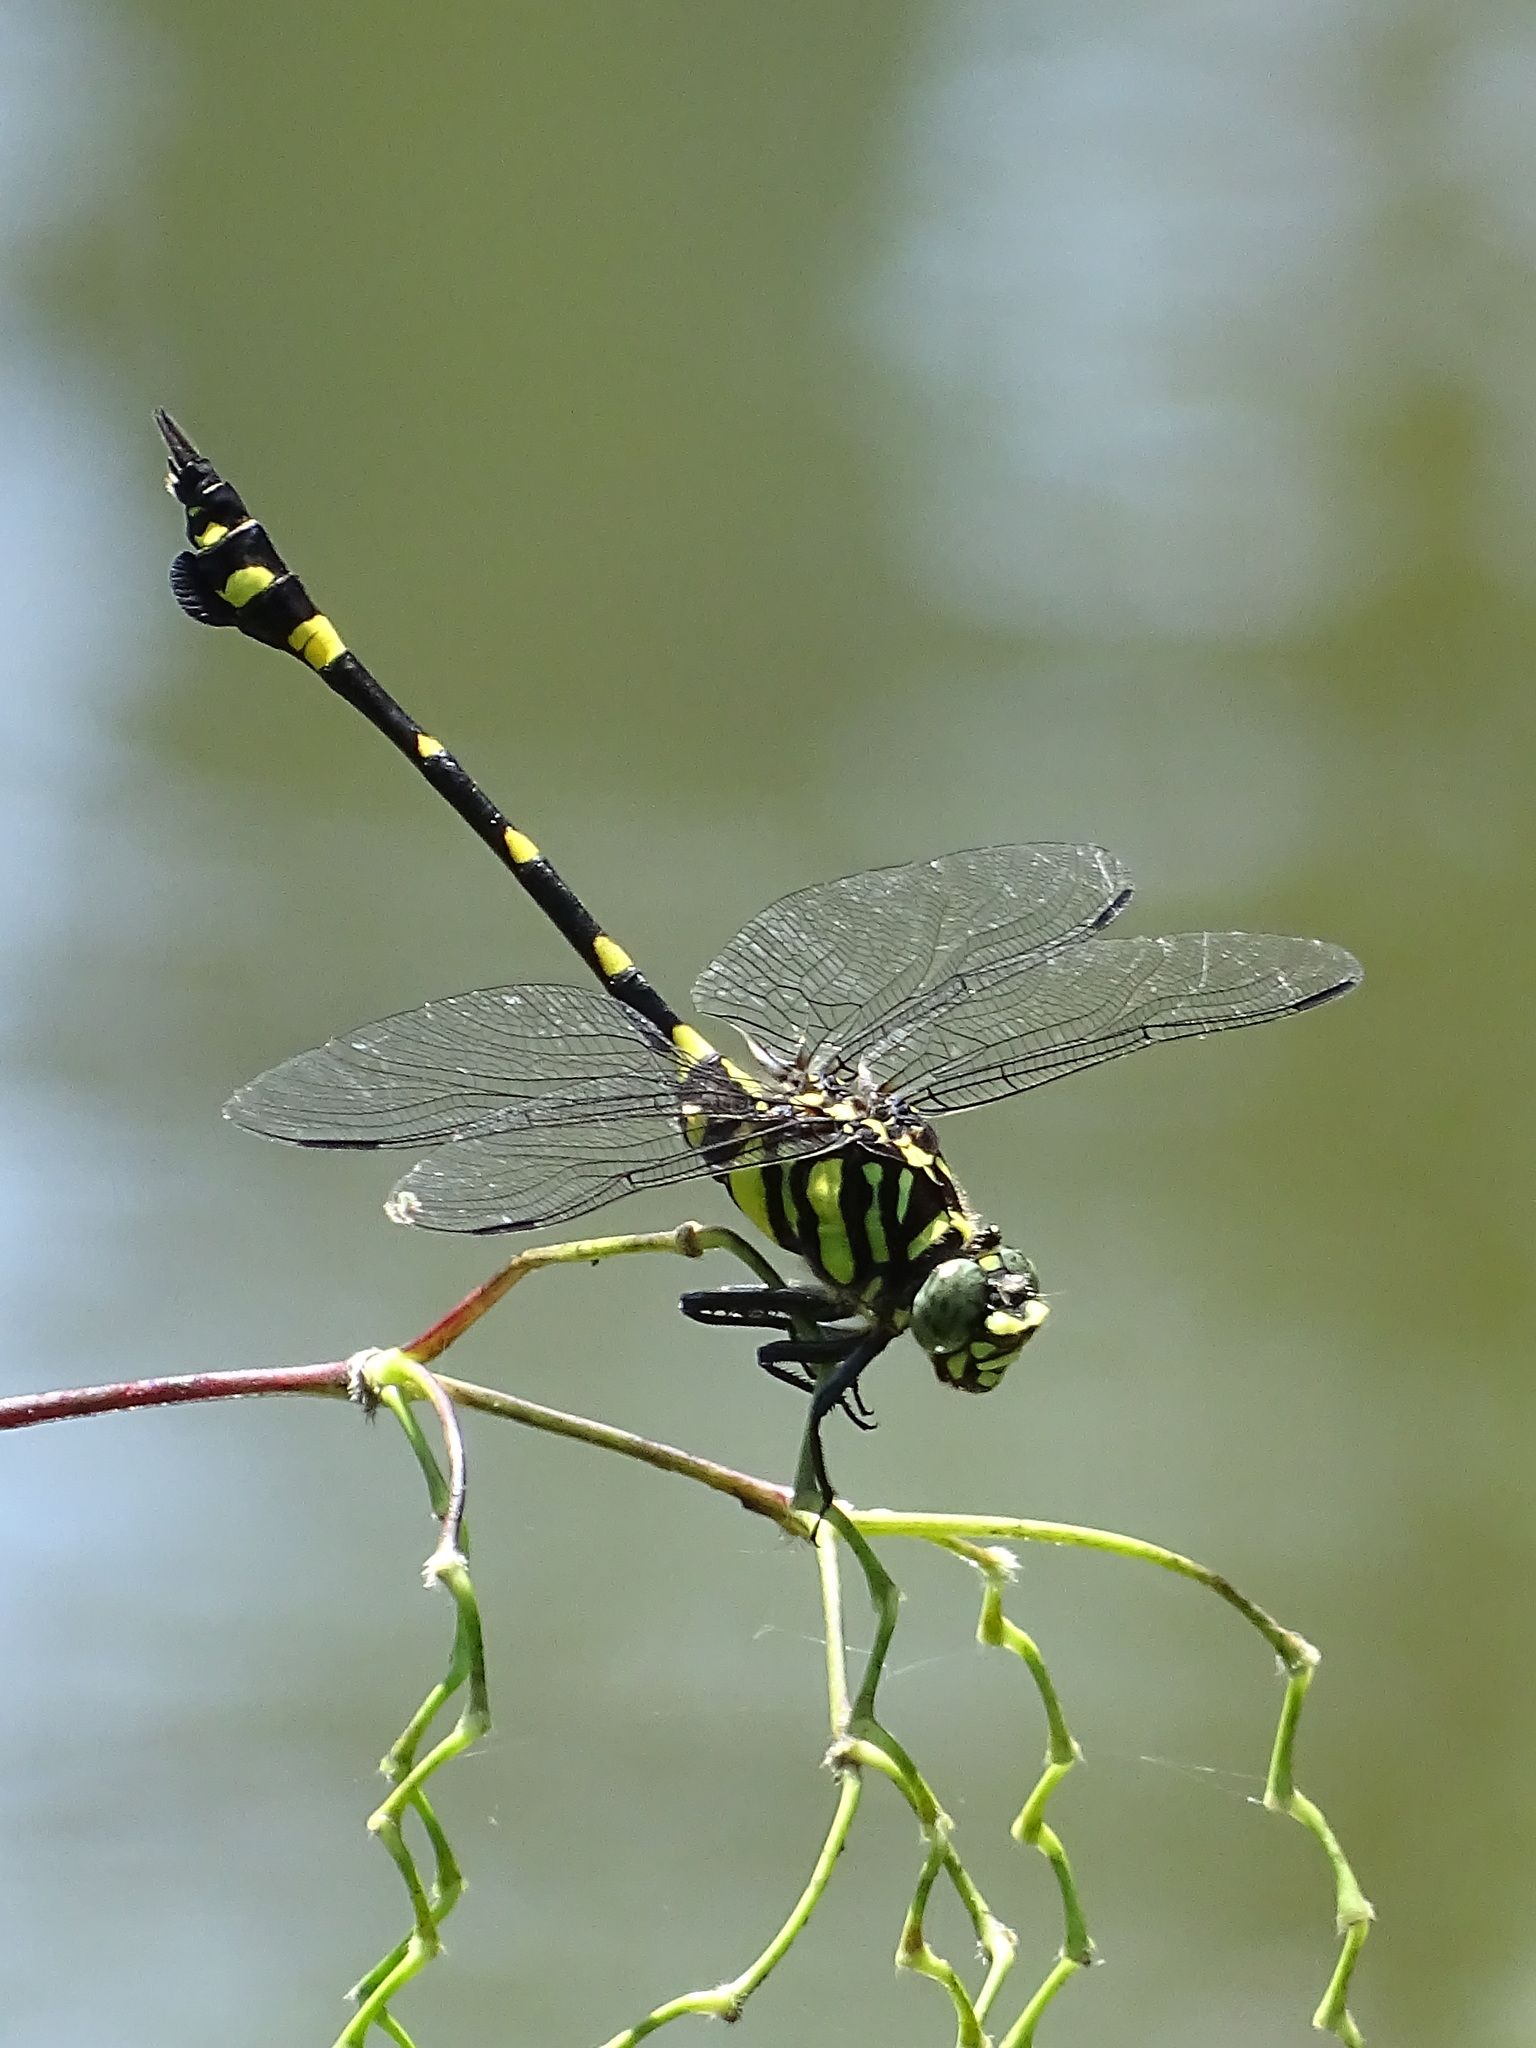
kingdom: Animalia
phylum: Arthropoda
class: Insecta
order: Odonata
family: Gomphidae
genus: Ictinogomphus
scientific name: Ictinogomphus rapax
